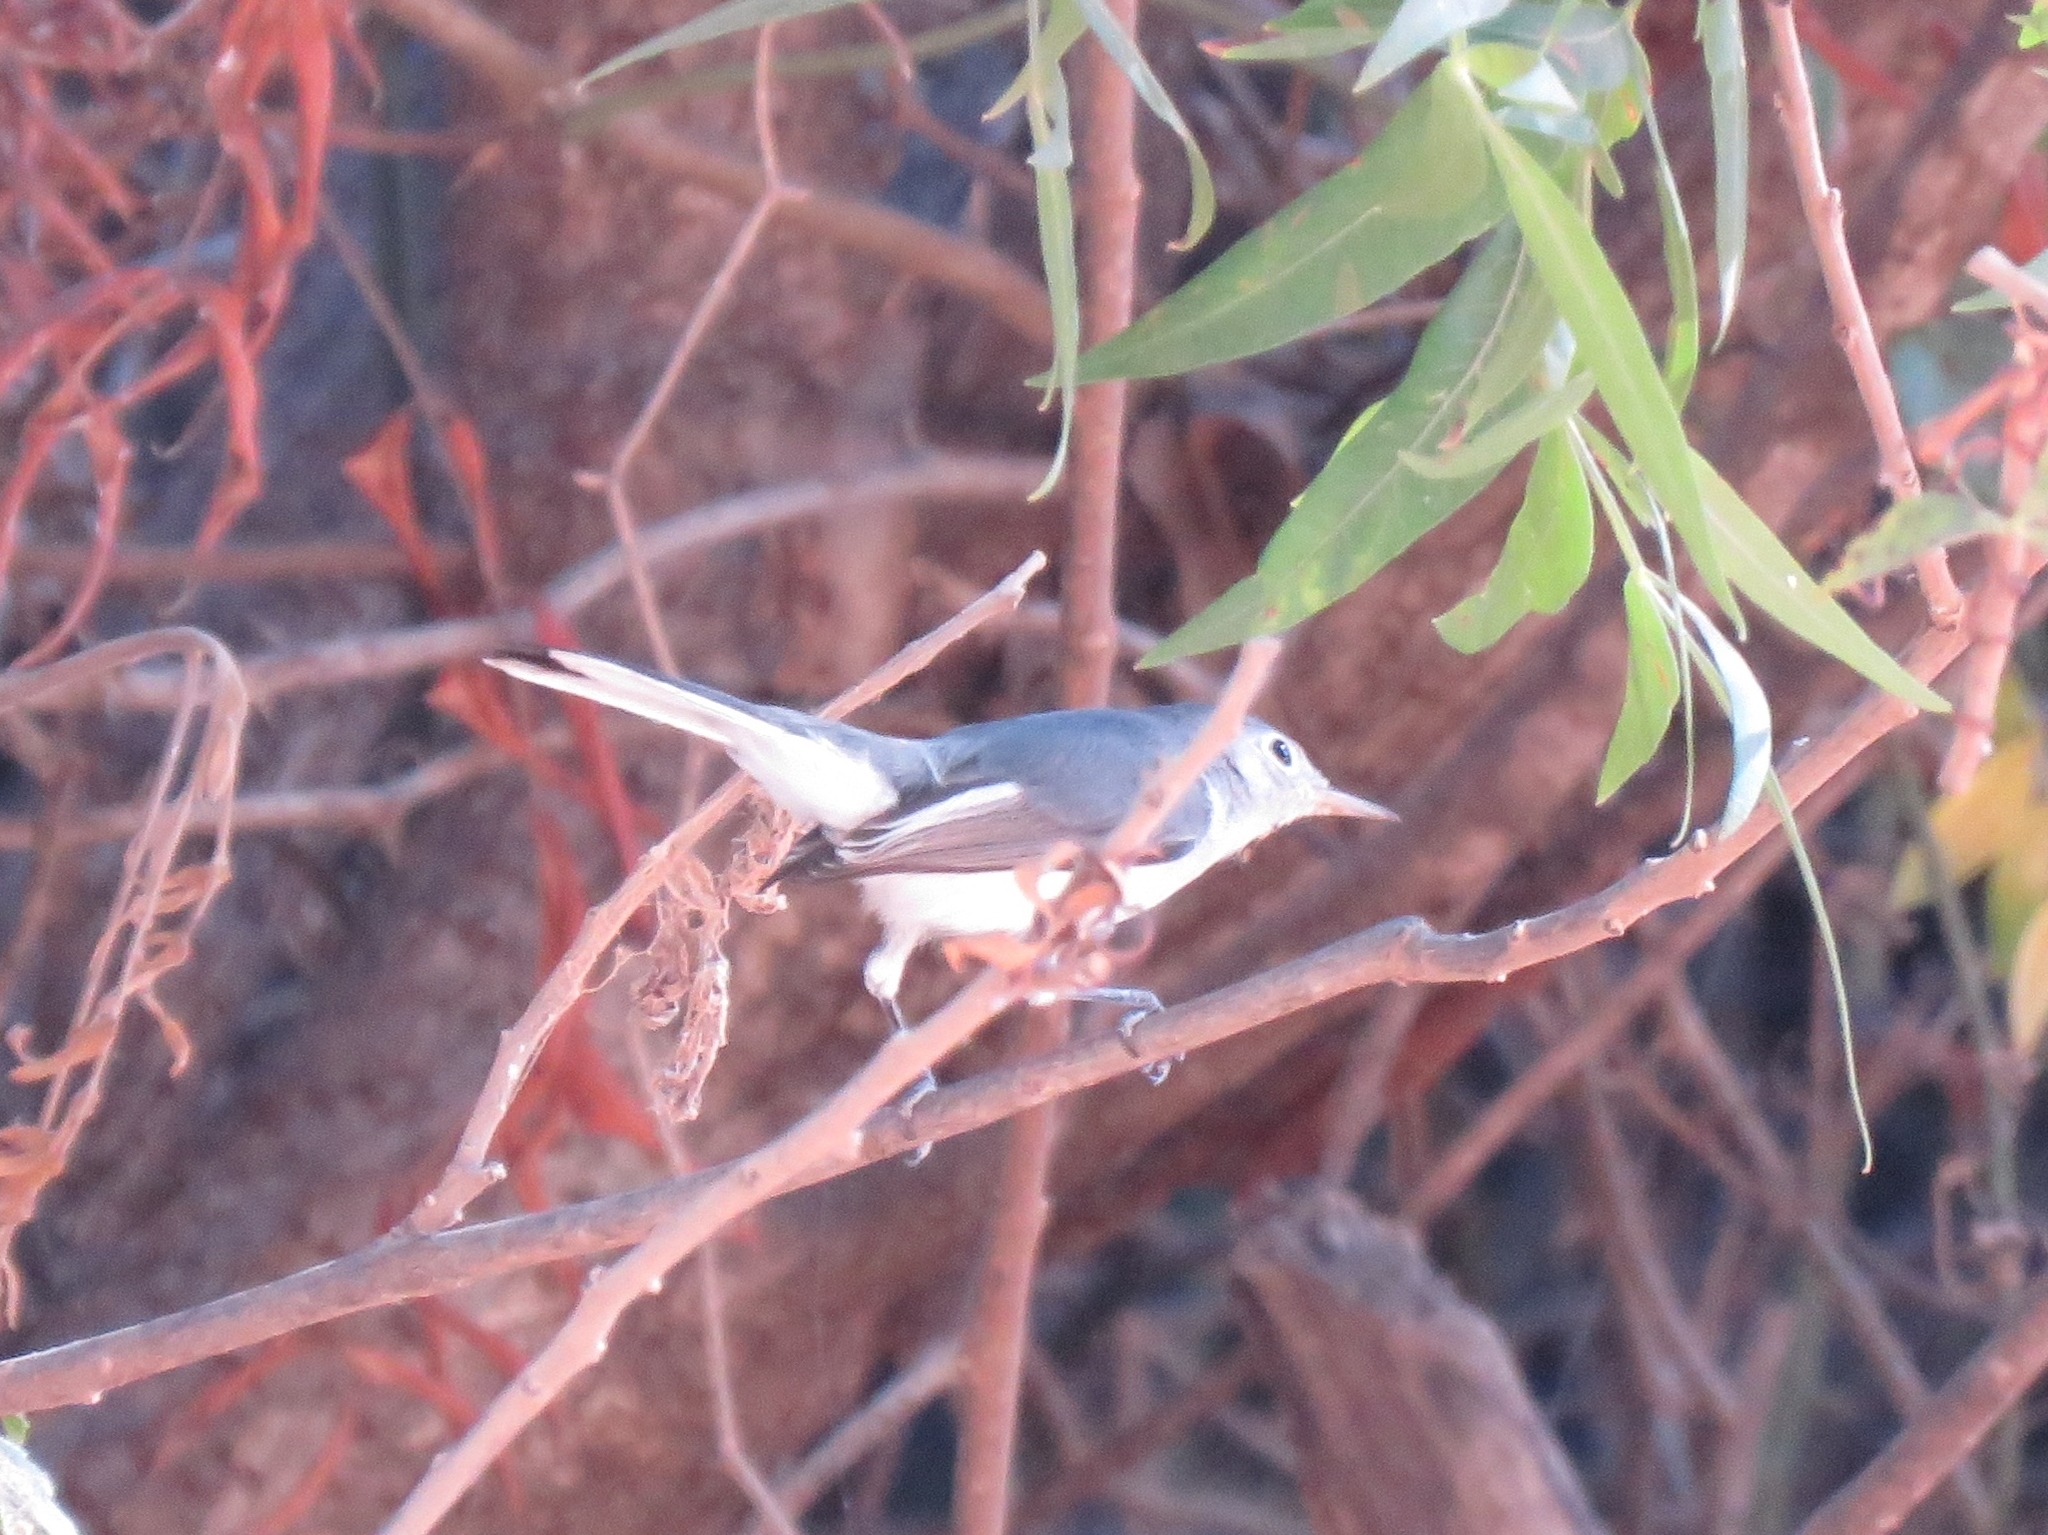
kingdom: Animalia
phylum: Chordata
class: Aves
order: Passeriformes
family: Polioptilidae
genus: Polioptila
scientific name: Polioptila caerulea
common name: Blue-gray gnatcatcher
